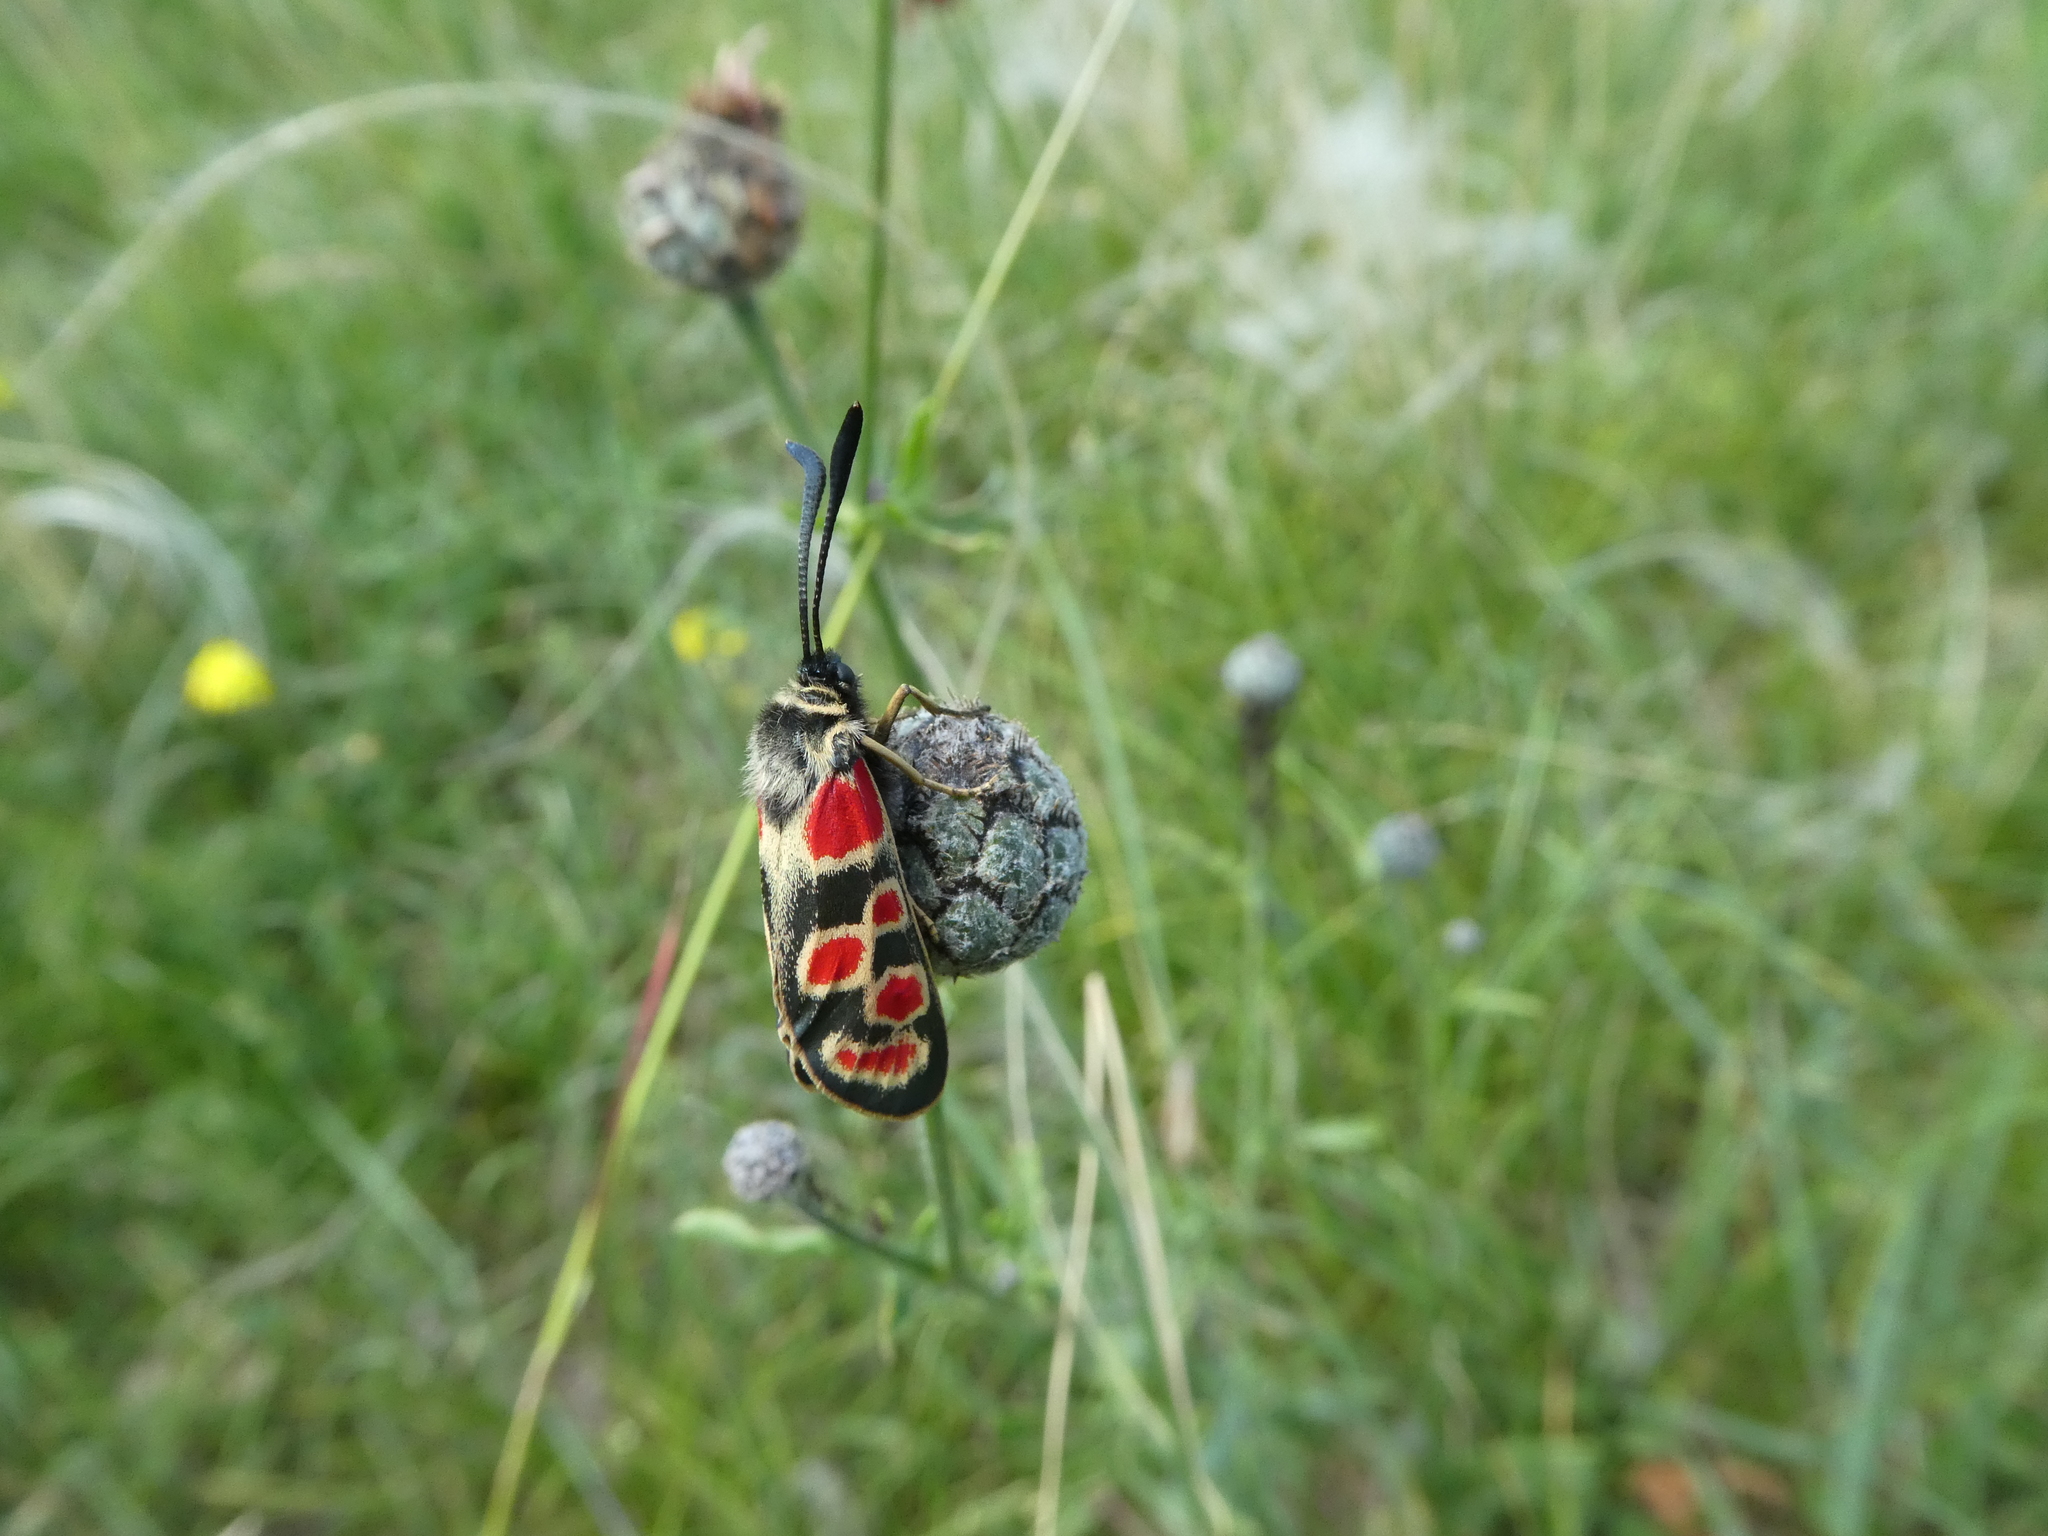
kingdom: Animalia
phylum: Arthropoda
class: Insecta
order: Lepidoptera
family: Zygaenidae
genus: Zygaena
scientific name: Zygaena carniolica
